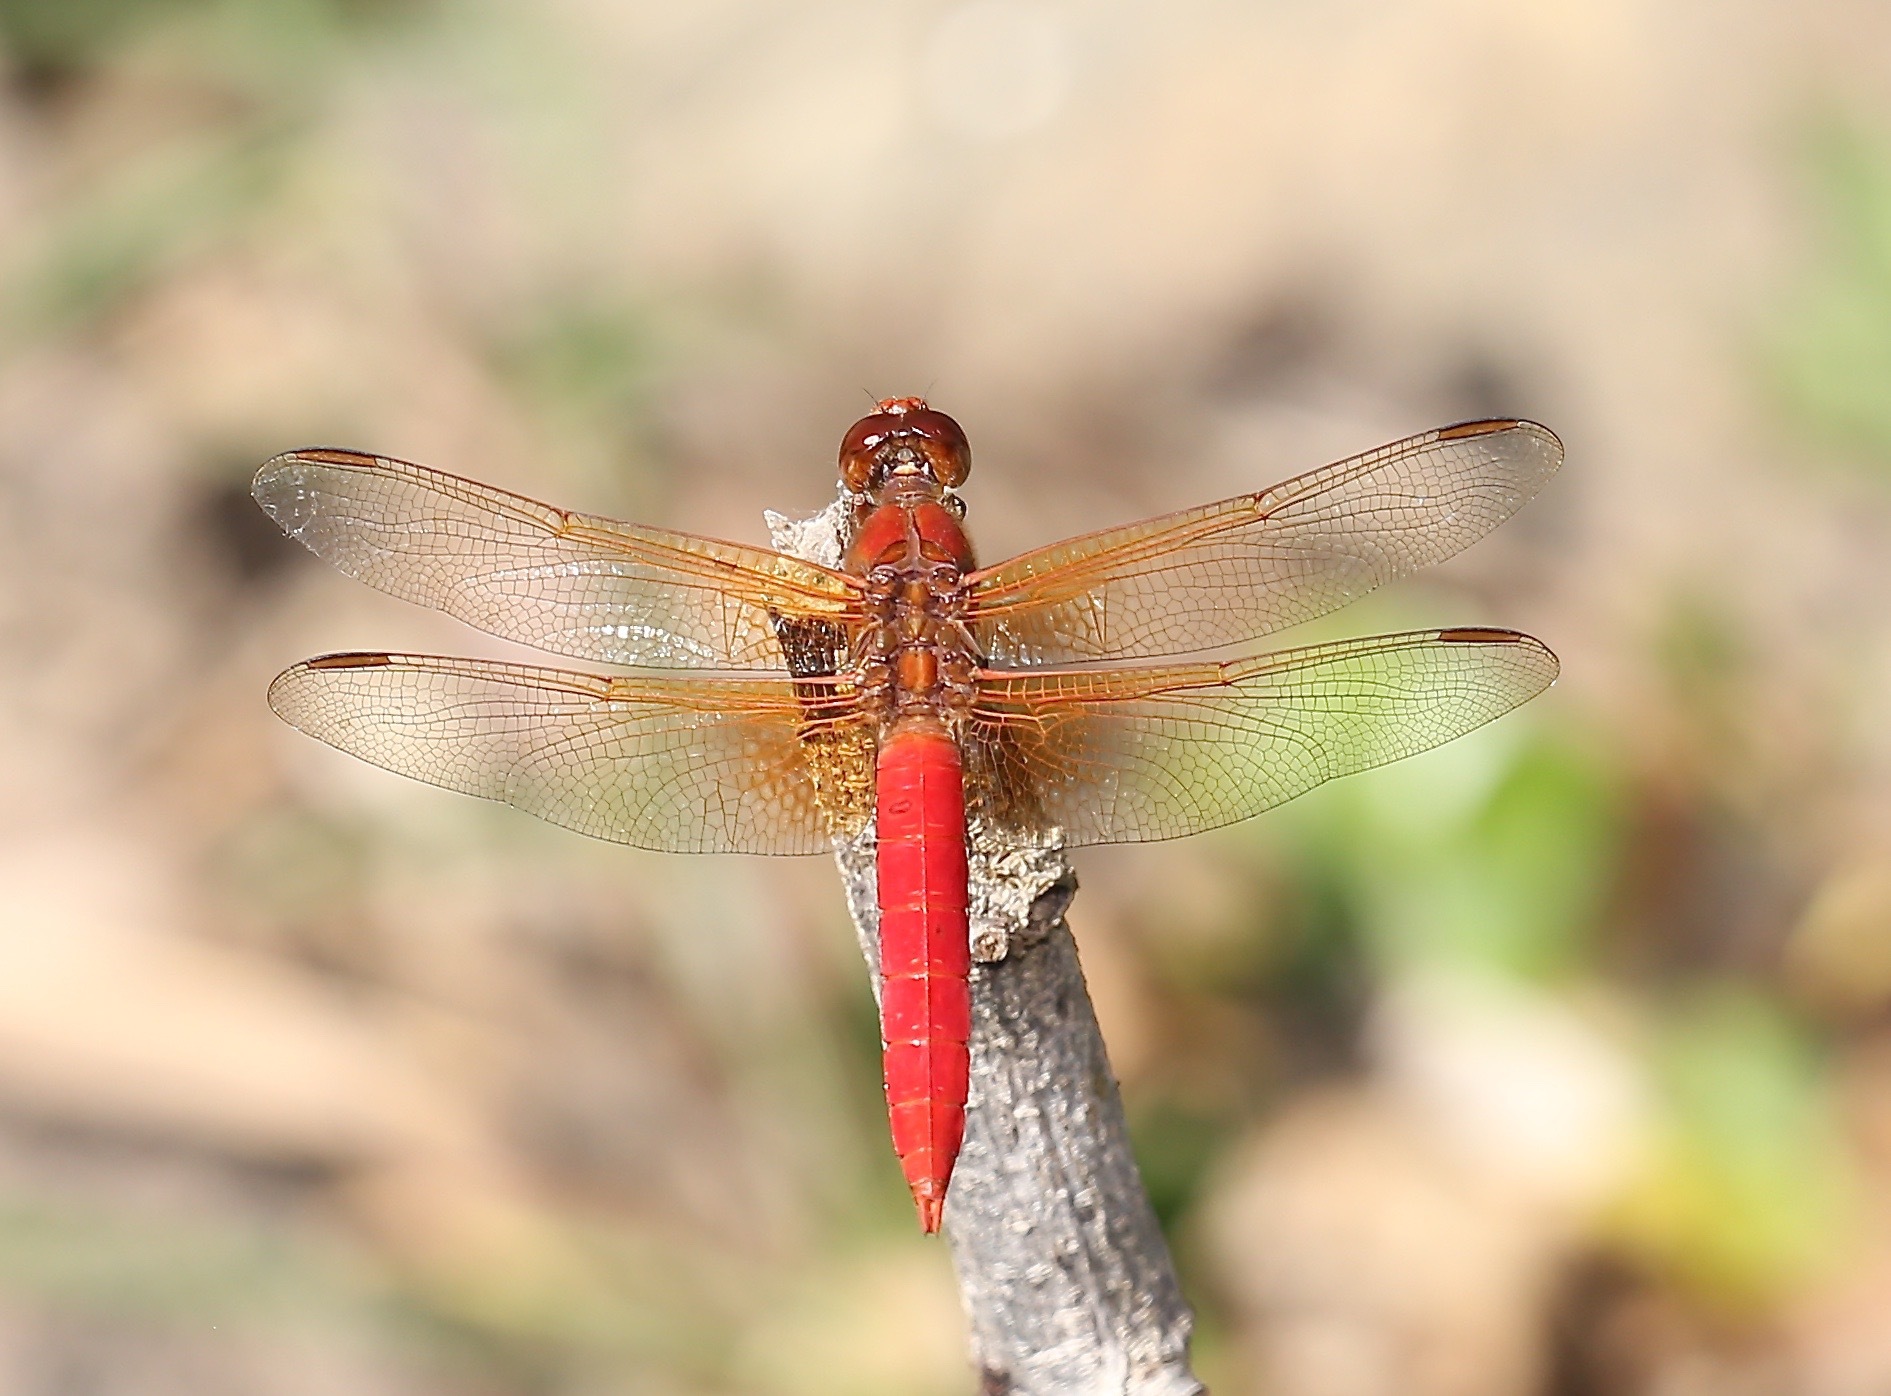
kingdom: Animalia
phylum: Arthropoda
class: Insecta
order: Odonata
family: Libellulidae
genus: Libellula
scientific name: Libellula croceipennis
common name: Neon skimmer
